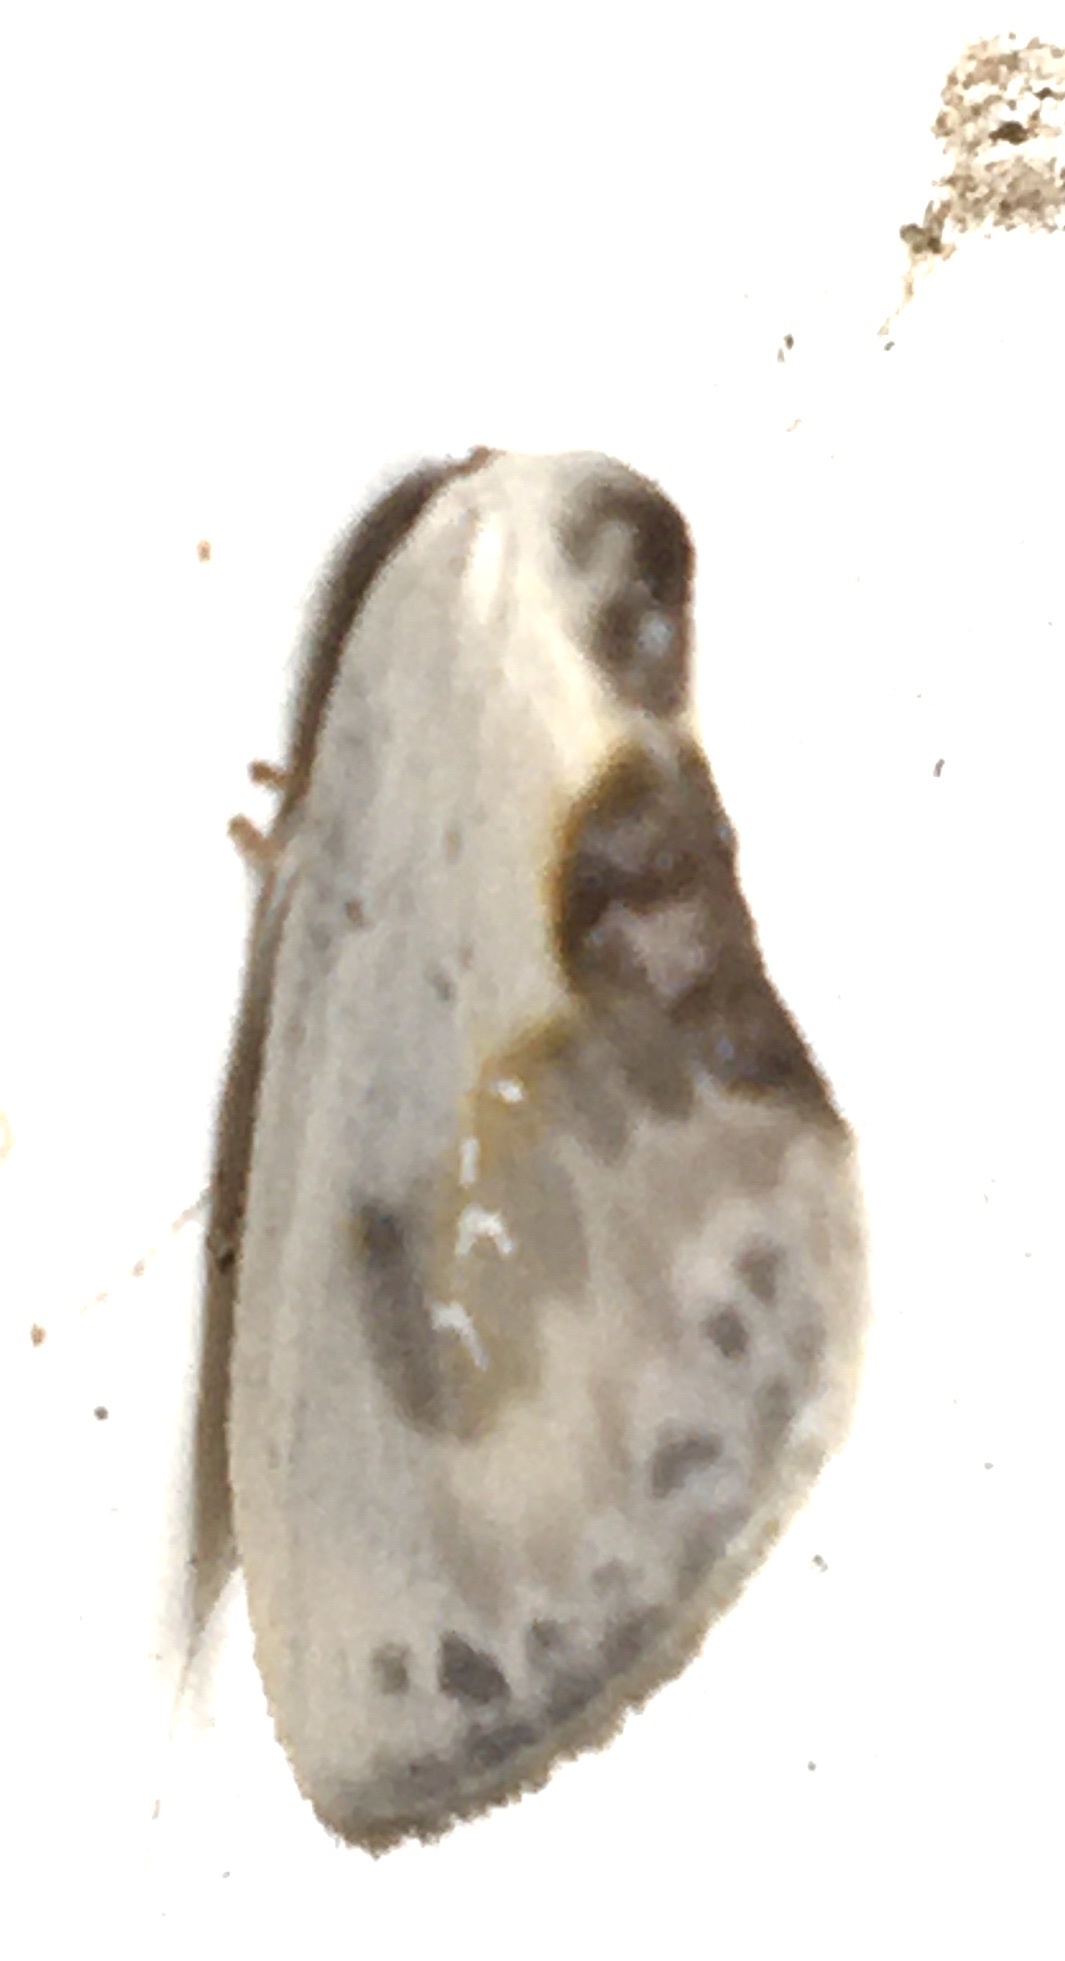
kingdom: Animalia
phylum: Arthropoda
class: Insecta
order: Lepidoptera
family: Drepanidae
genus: Cilix
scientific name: Cilix glaucata
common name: Chinese character
